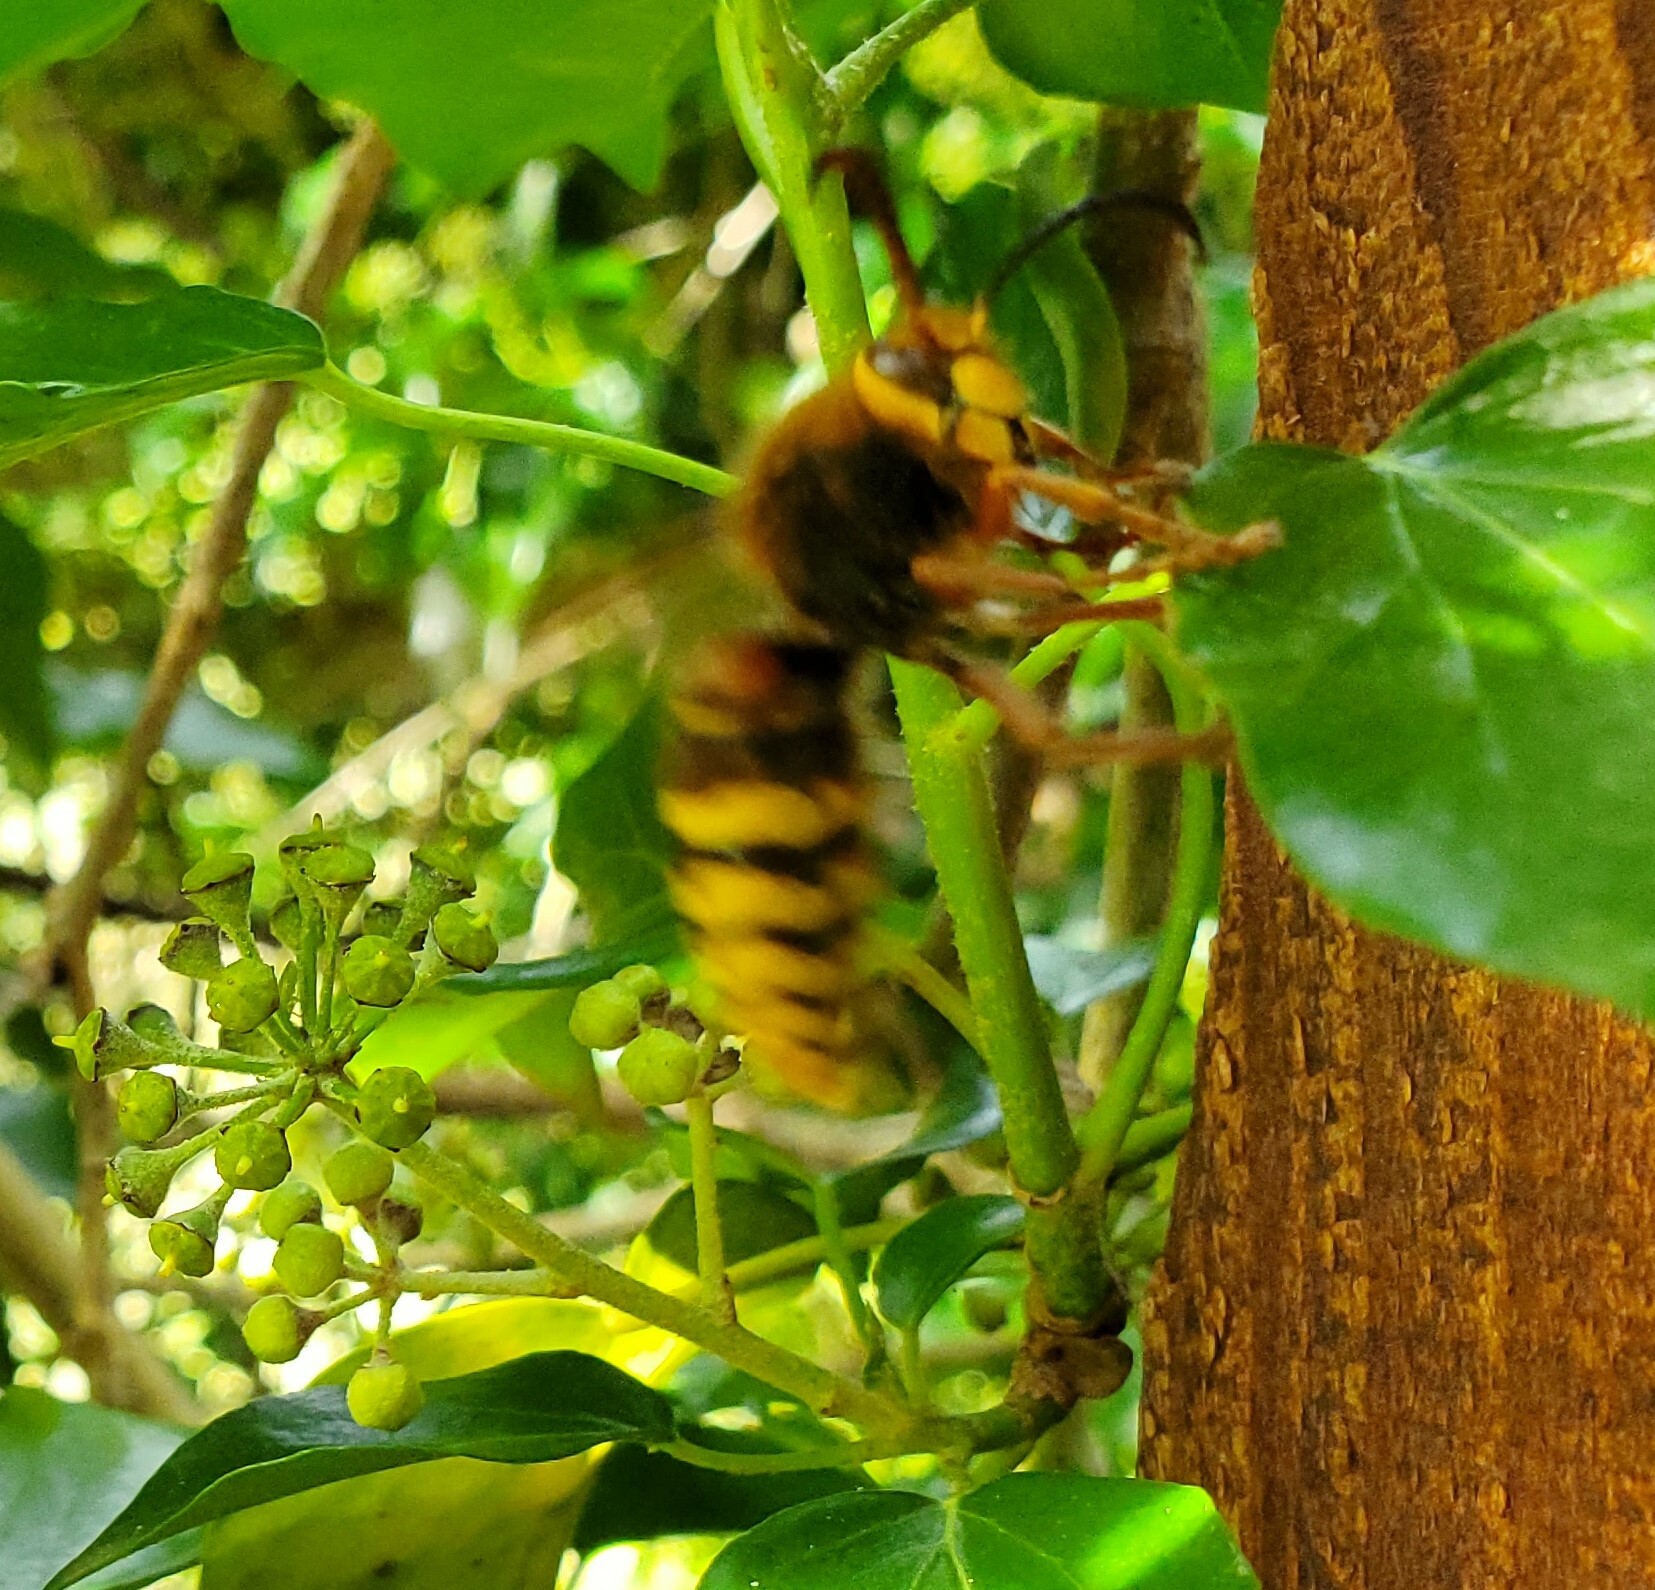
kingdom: Animalia
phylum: Arthropoda
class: Insecta
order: Hymenoptera
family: Vespidae
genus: Vespa
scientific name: Vespa crabro
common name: Hornet
